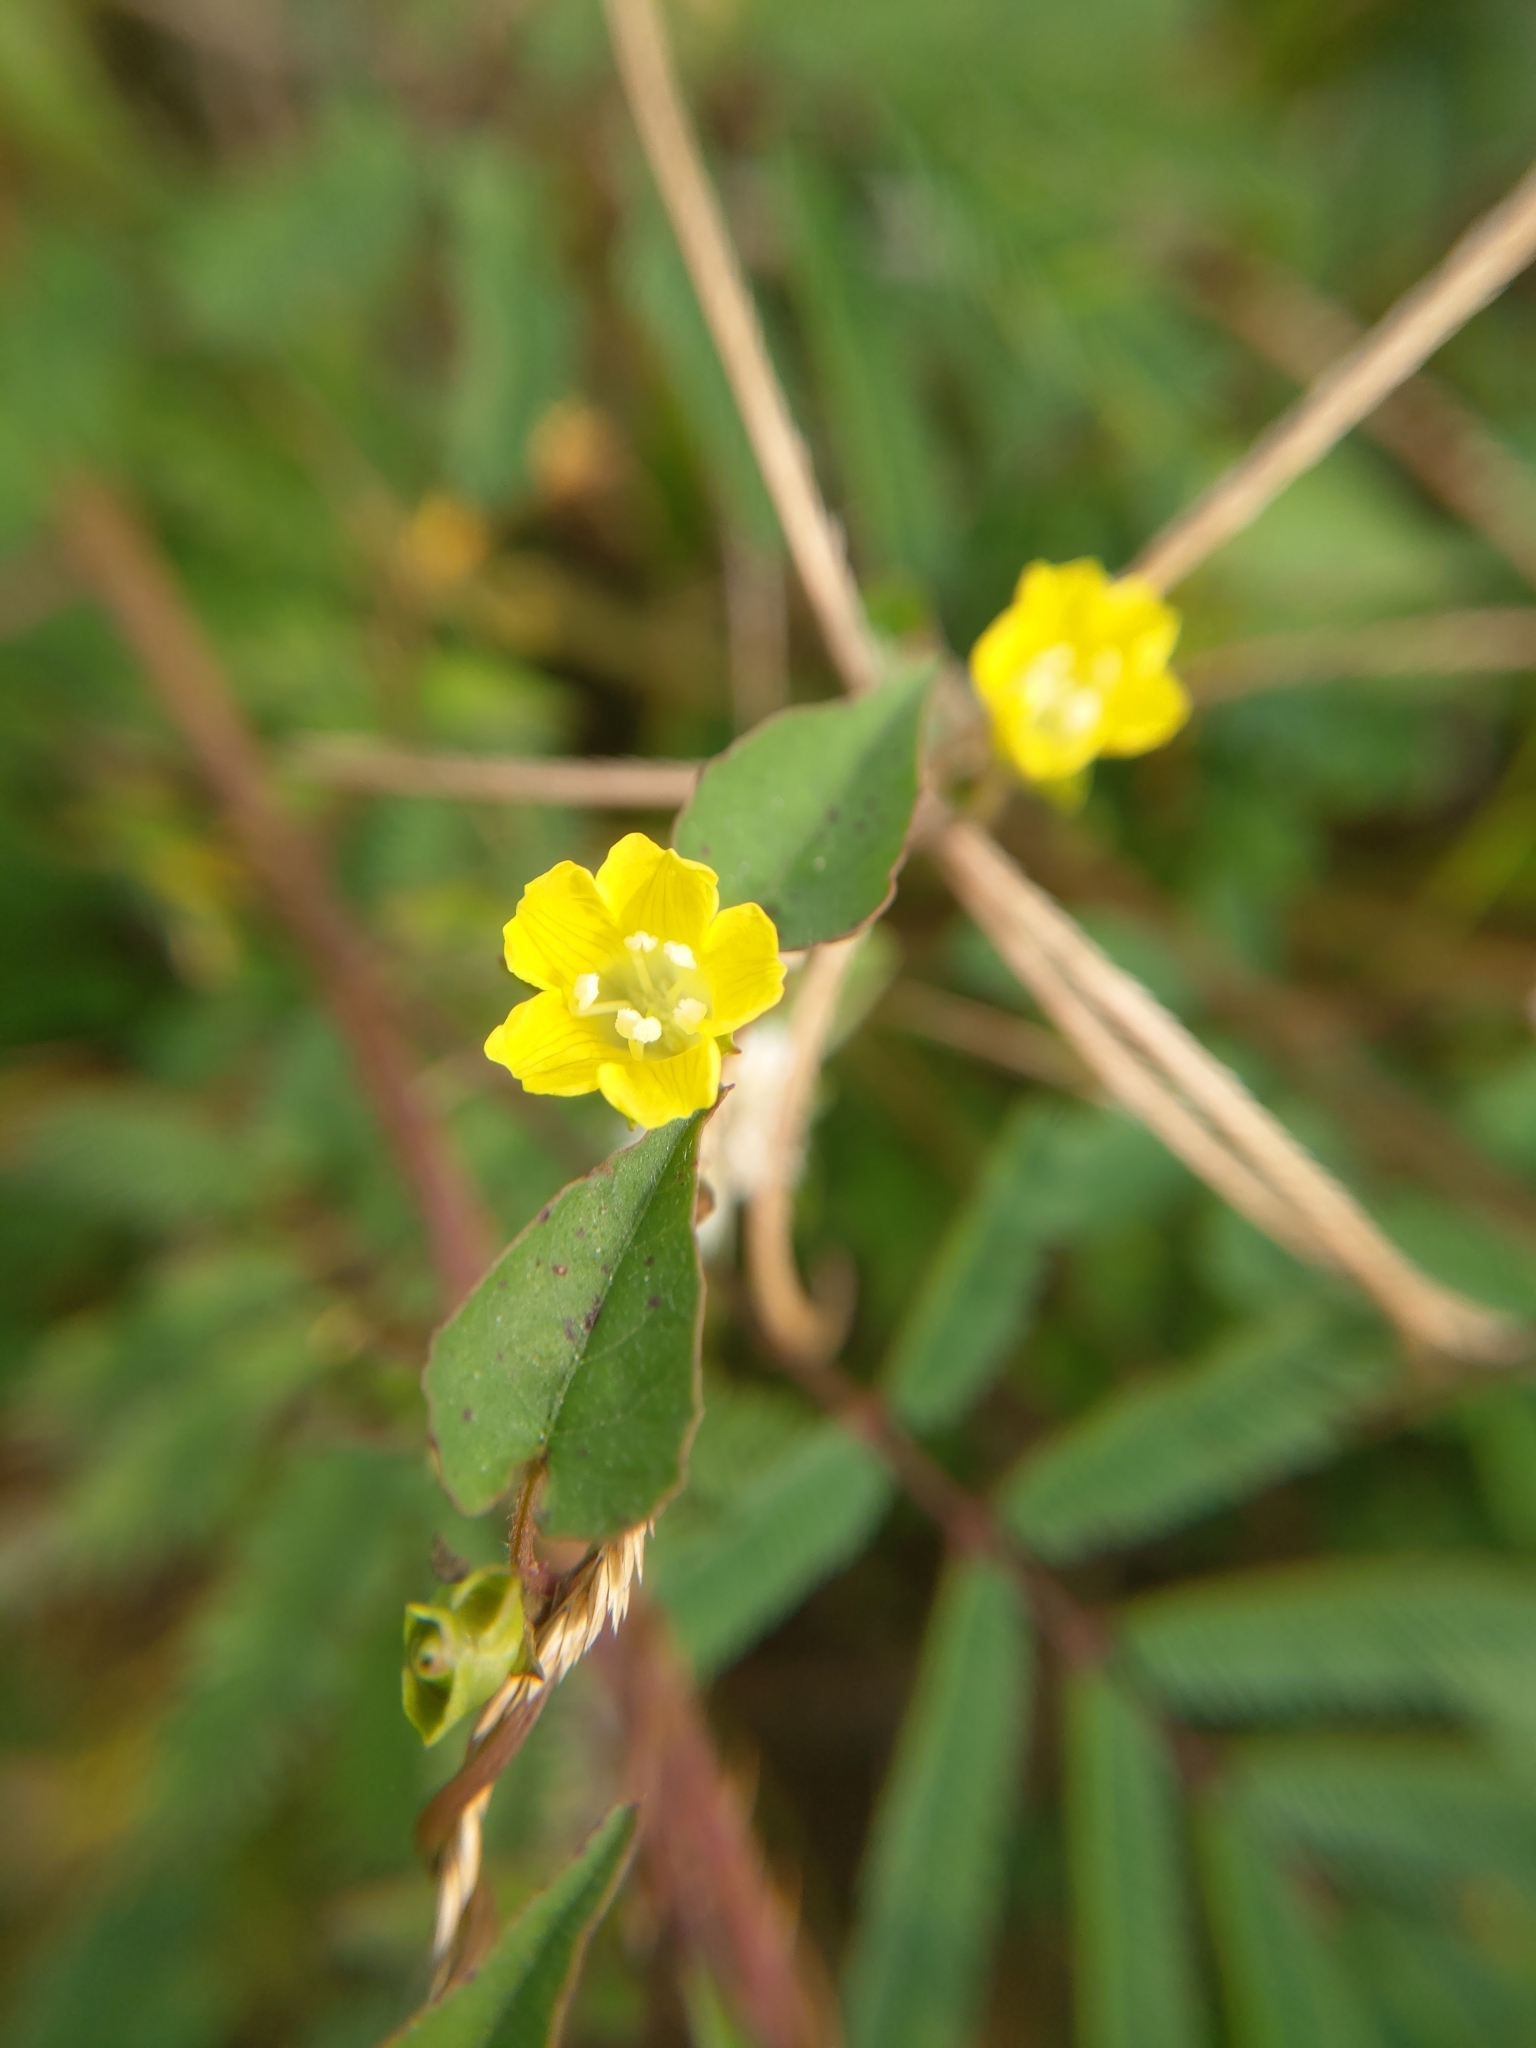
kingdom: Plantae
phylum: Tracheophyta
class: Magnoliopsida
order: Solanales
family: Convolvulaceae
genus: Merremia
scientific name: Merremia hederacea
